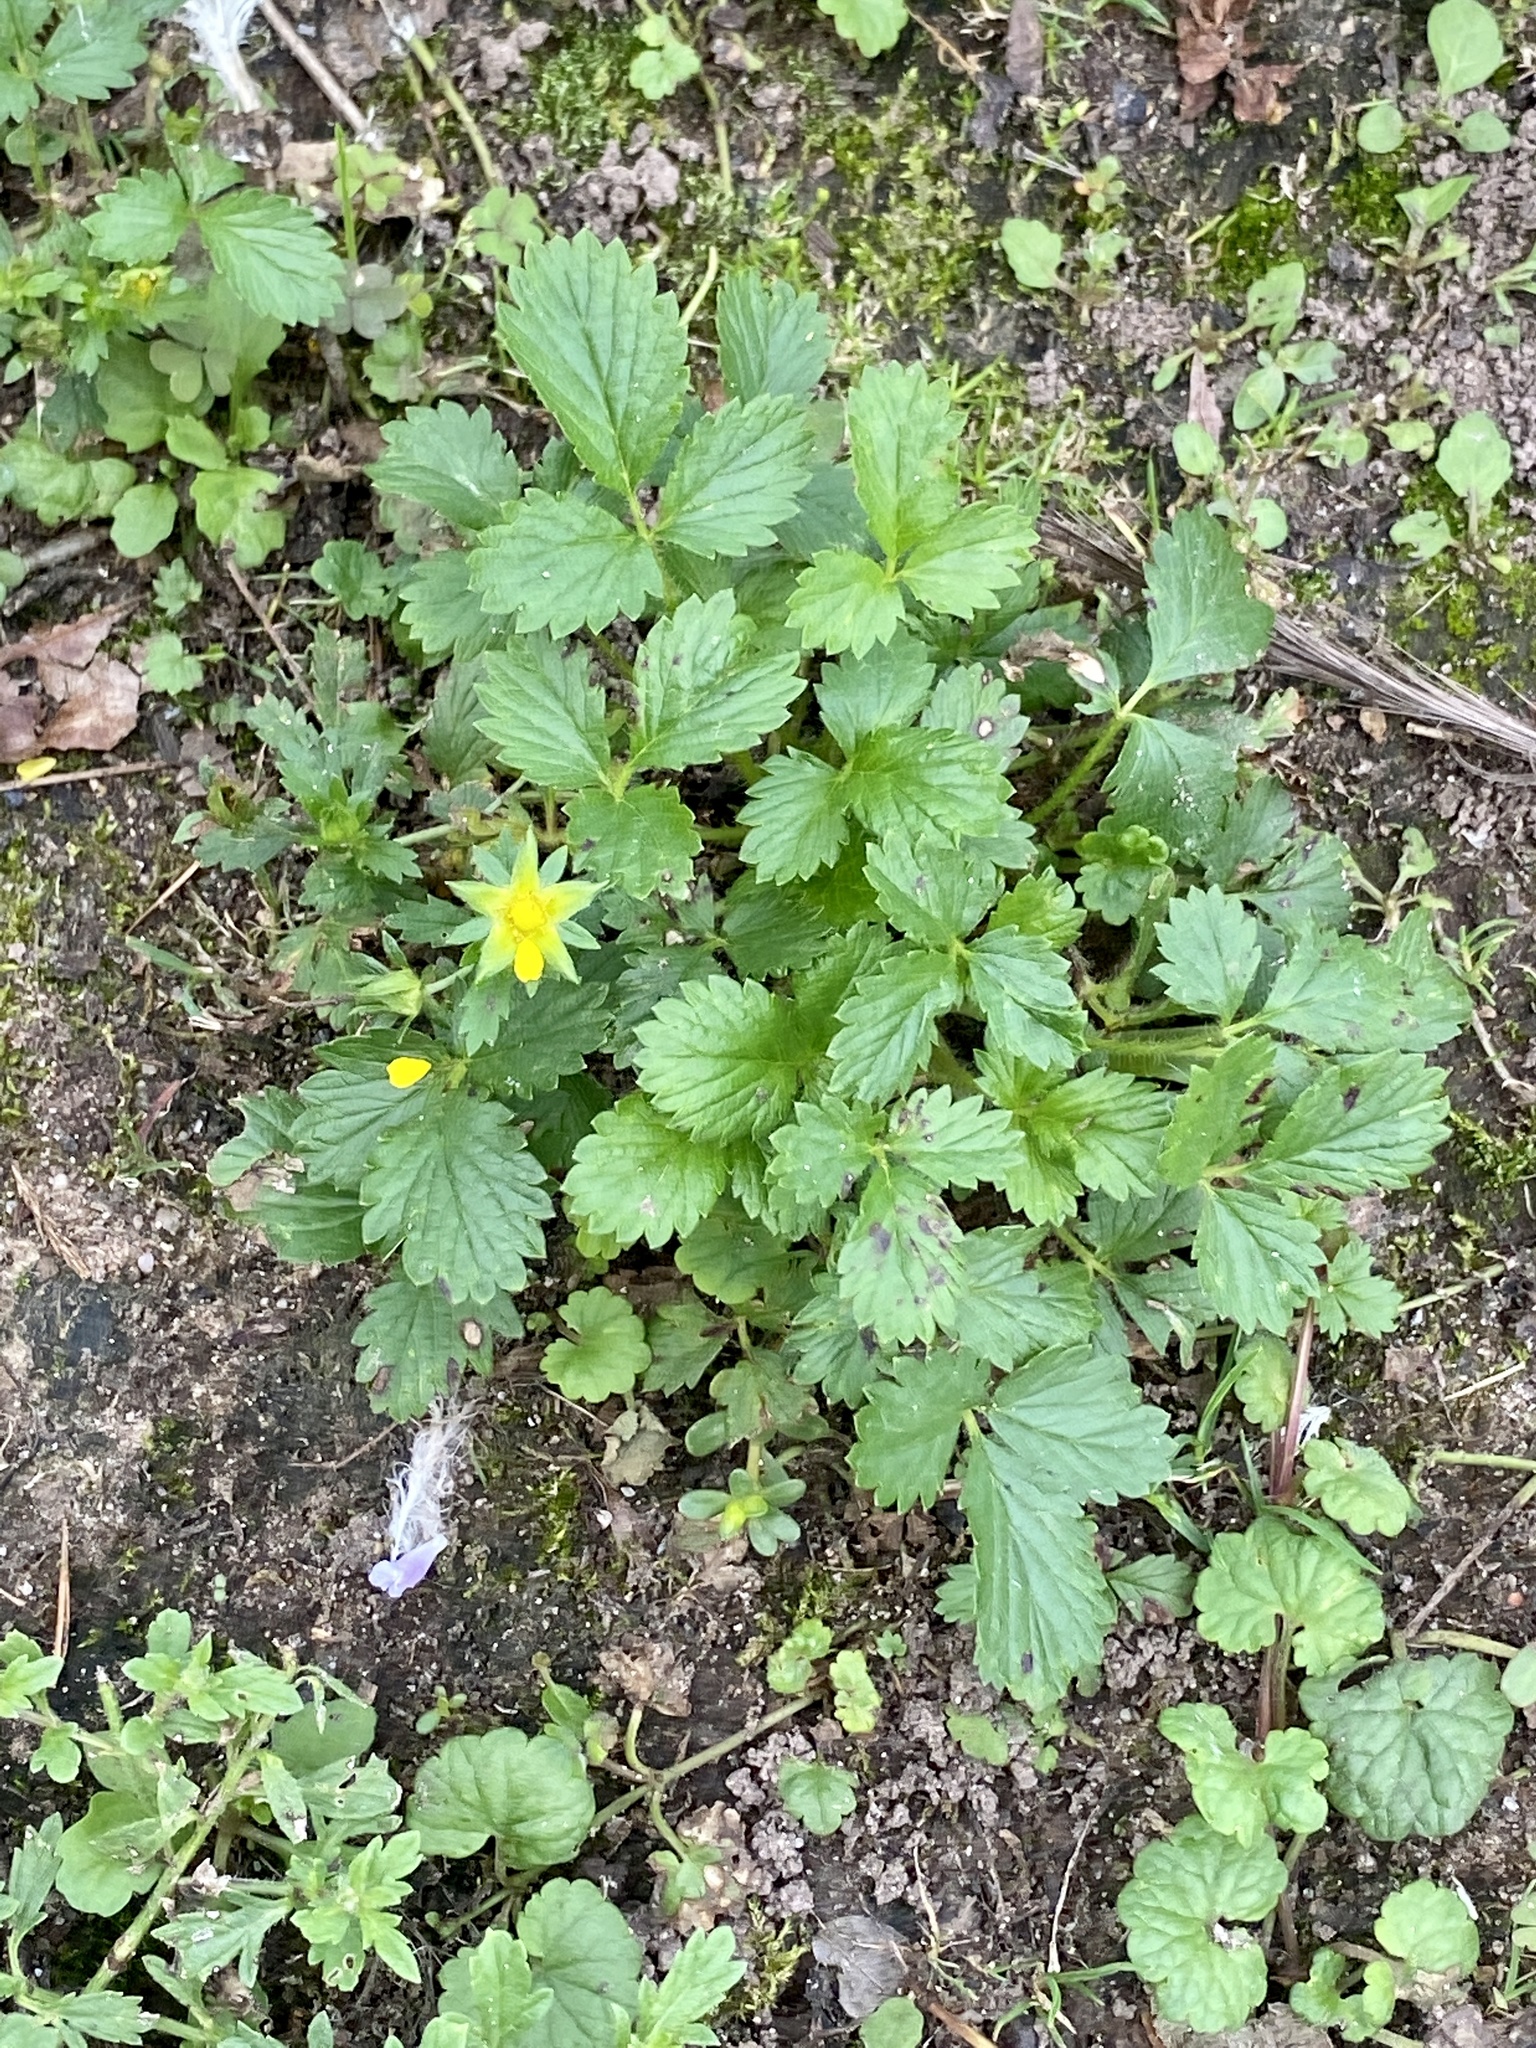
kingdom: Plantae
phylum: Tracheophyta
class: Magnoliopsida
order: Rosales
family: Rosaceae
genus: Potentilla
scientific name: Potentilla norvegica
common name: Ternate-leaved cinquefoil
